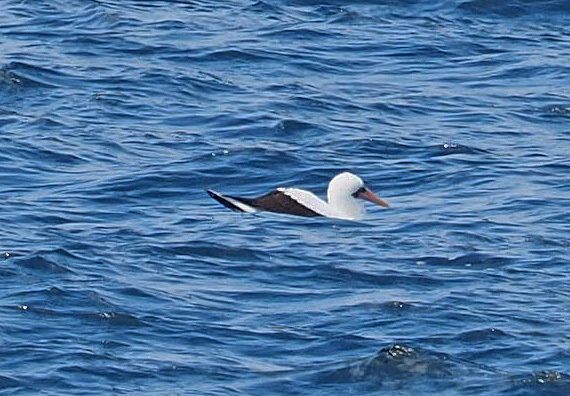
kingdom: Animalia
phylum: Chordata
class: Aves
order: Suliformes
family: Sulidae
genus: Sula
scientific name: Sula granti
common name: Nazca booby
